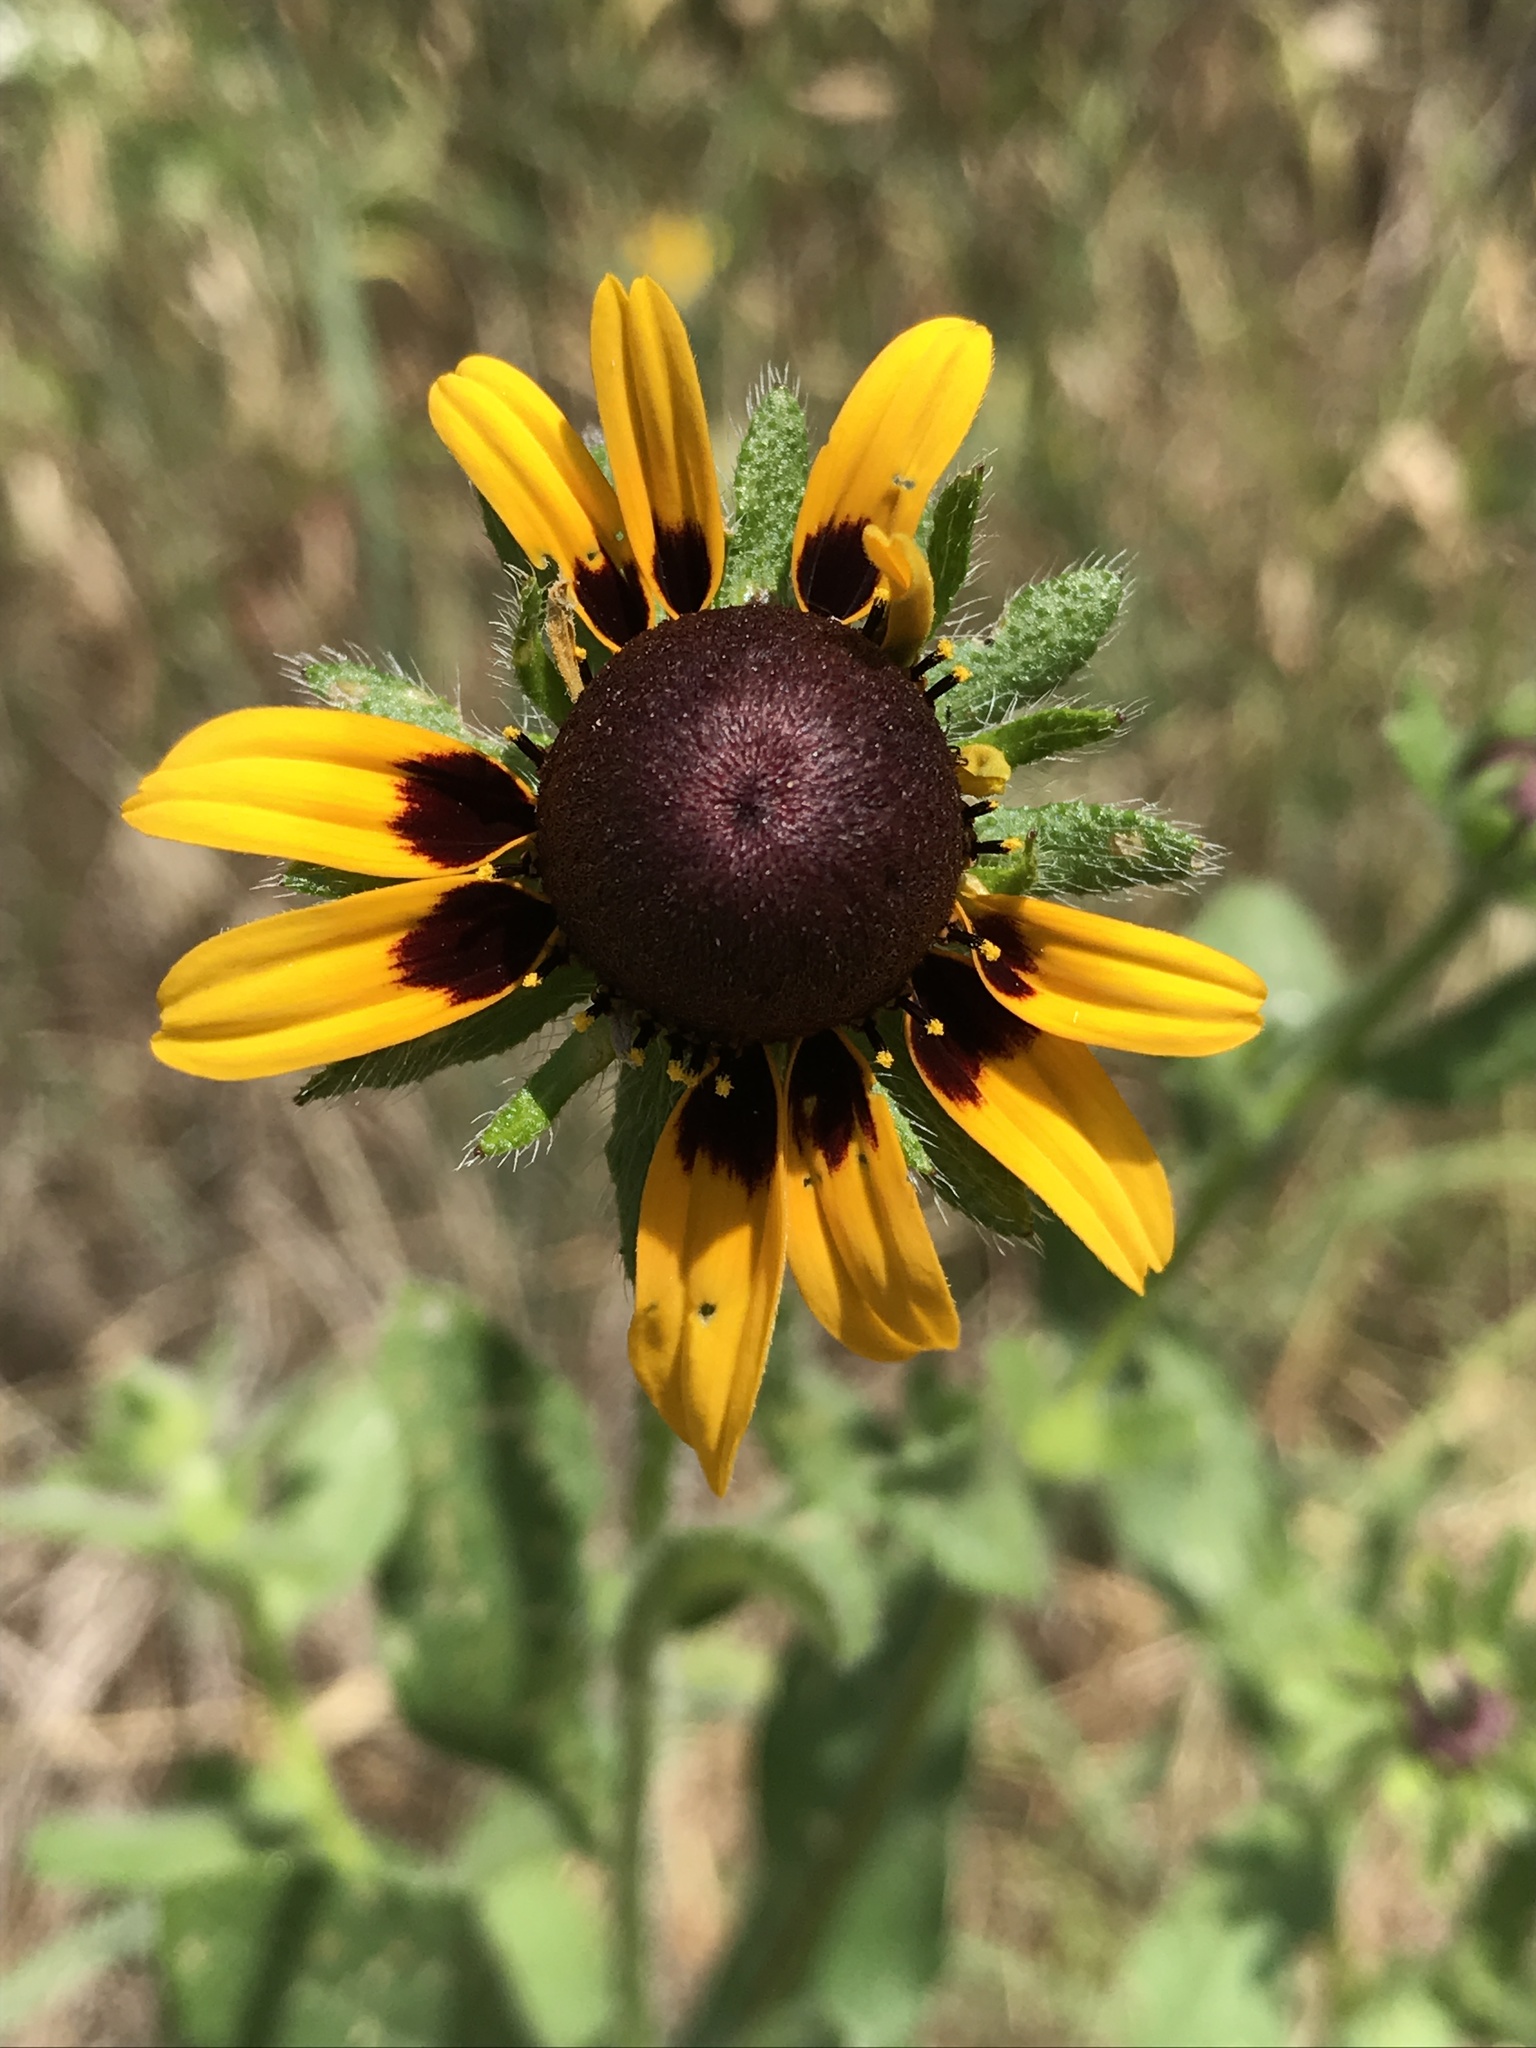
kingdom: Plantae
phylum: Tracheophyta
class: Magnoliopsida
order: Asterales
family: Asteraceae
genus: Rudbeckia
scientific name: Rudbeckia hirta
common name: Black-eyed-susan
